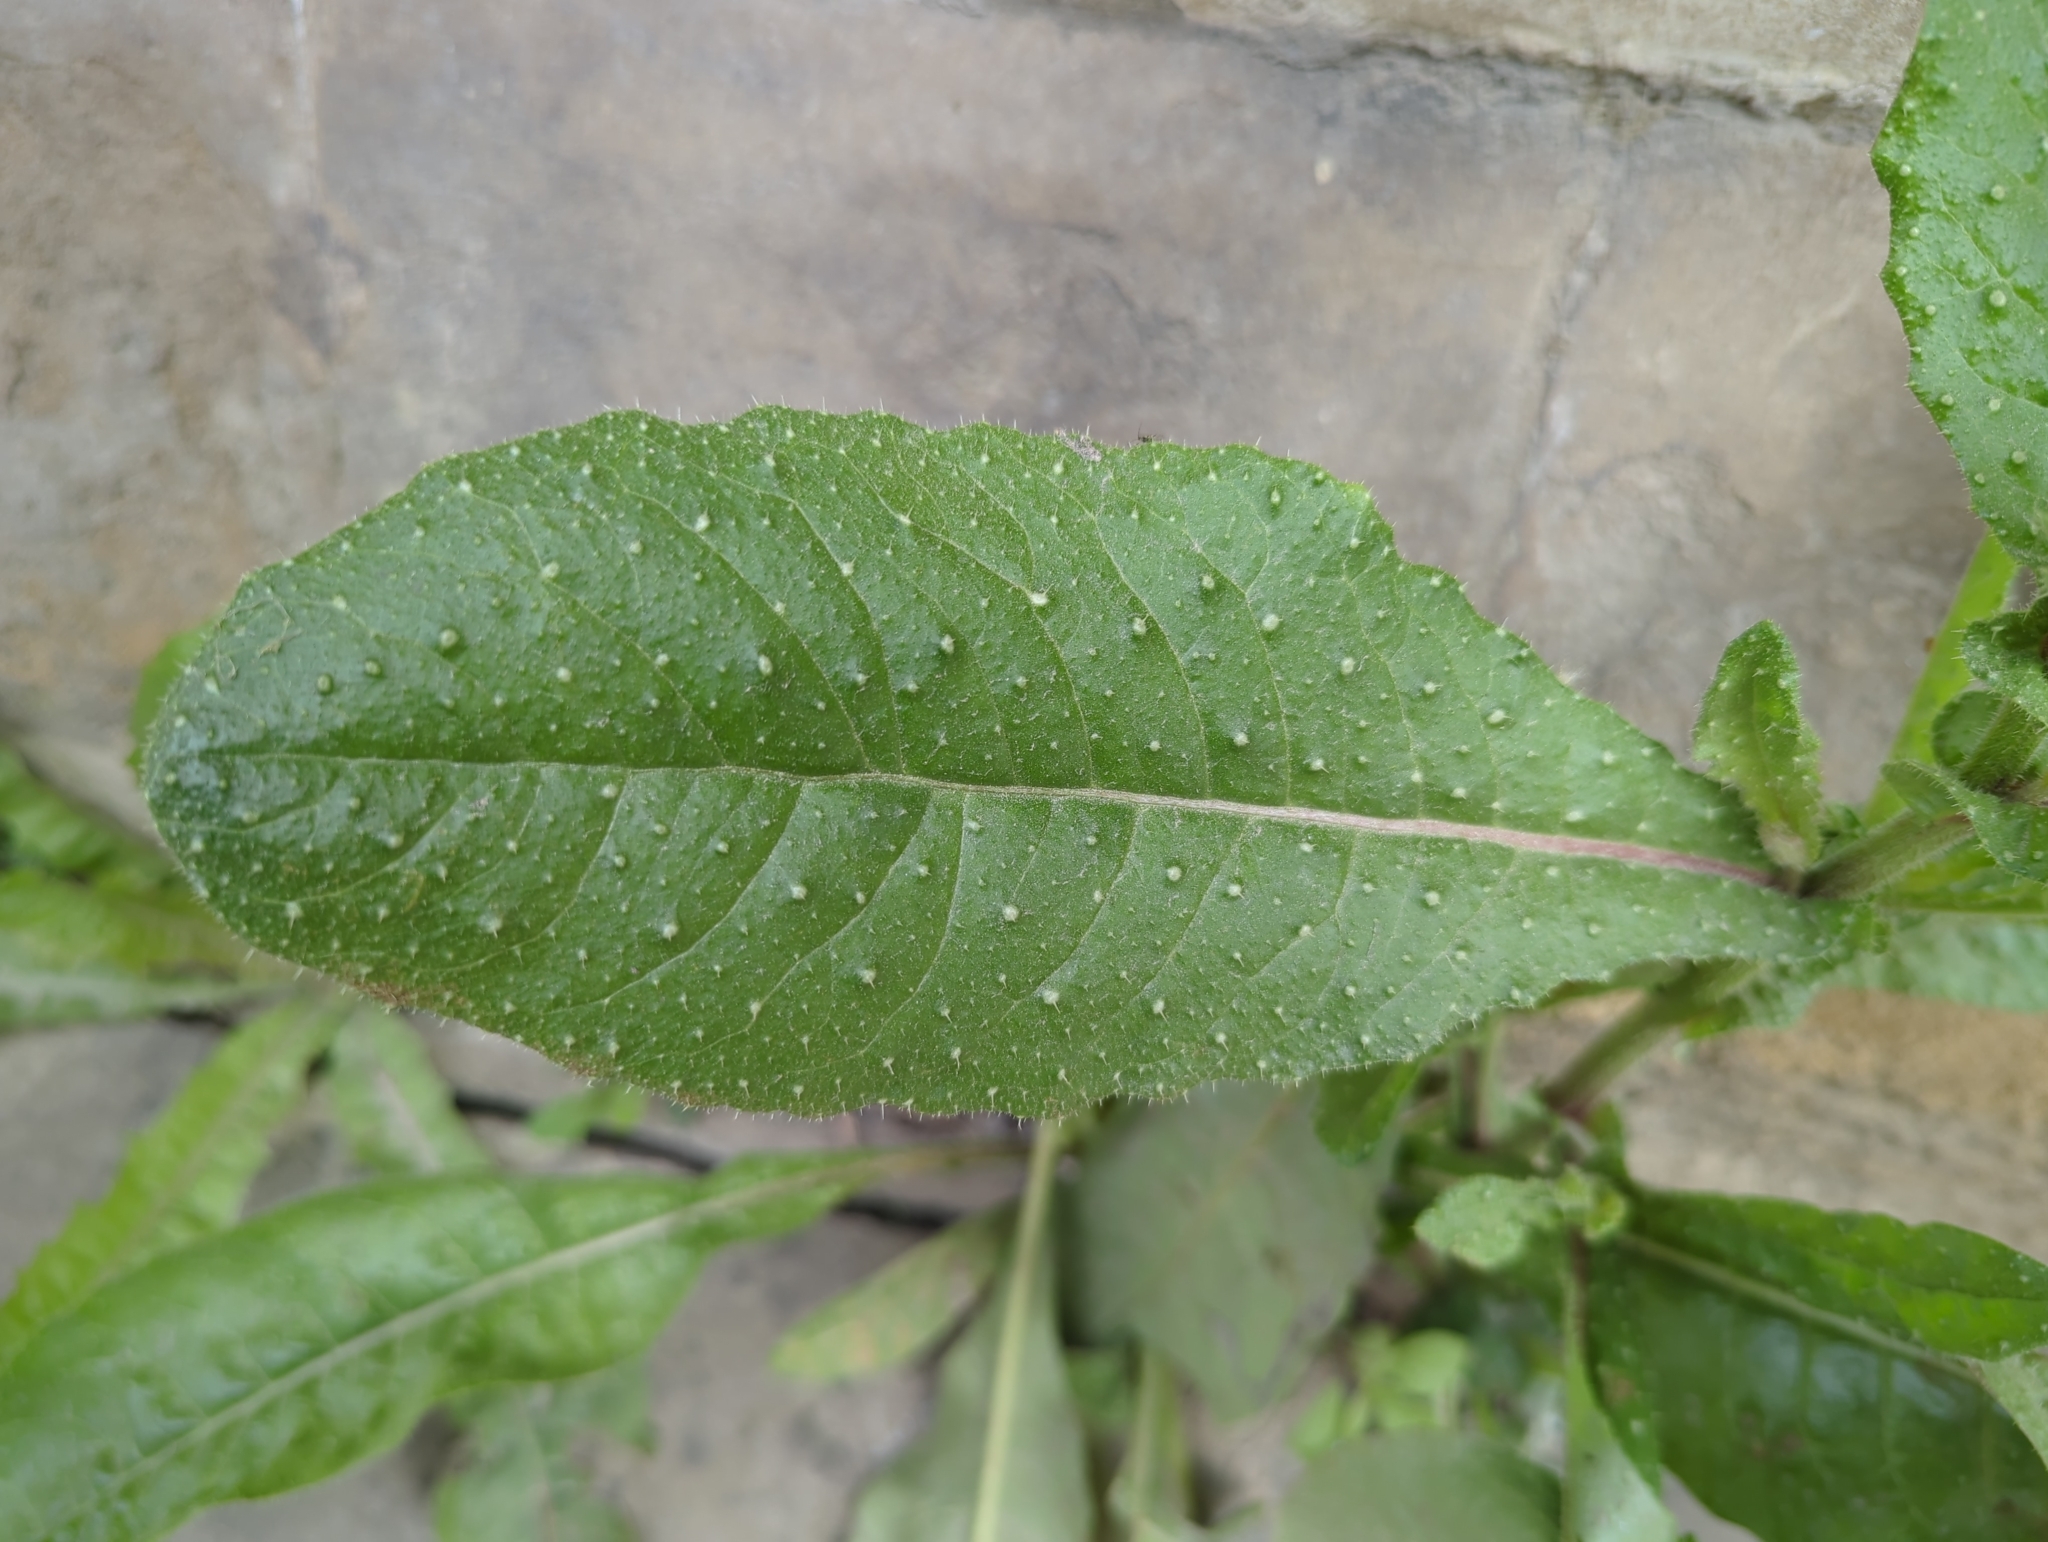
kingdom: Plantae
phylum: Tracheophyta
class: Magnoliopsida
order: Asterales
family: Asteraceae
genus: Helminthotheca
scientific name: Helminthotheca echioides
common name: Ox-tongue
